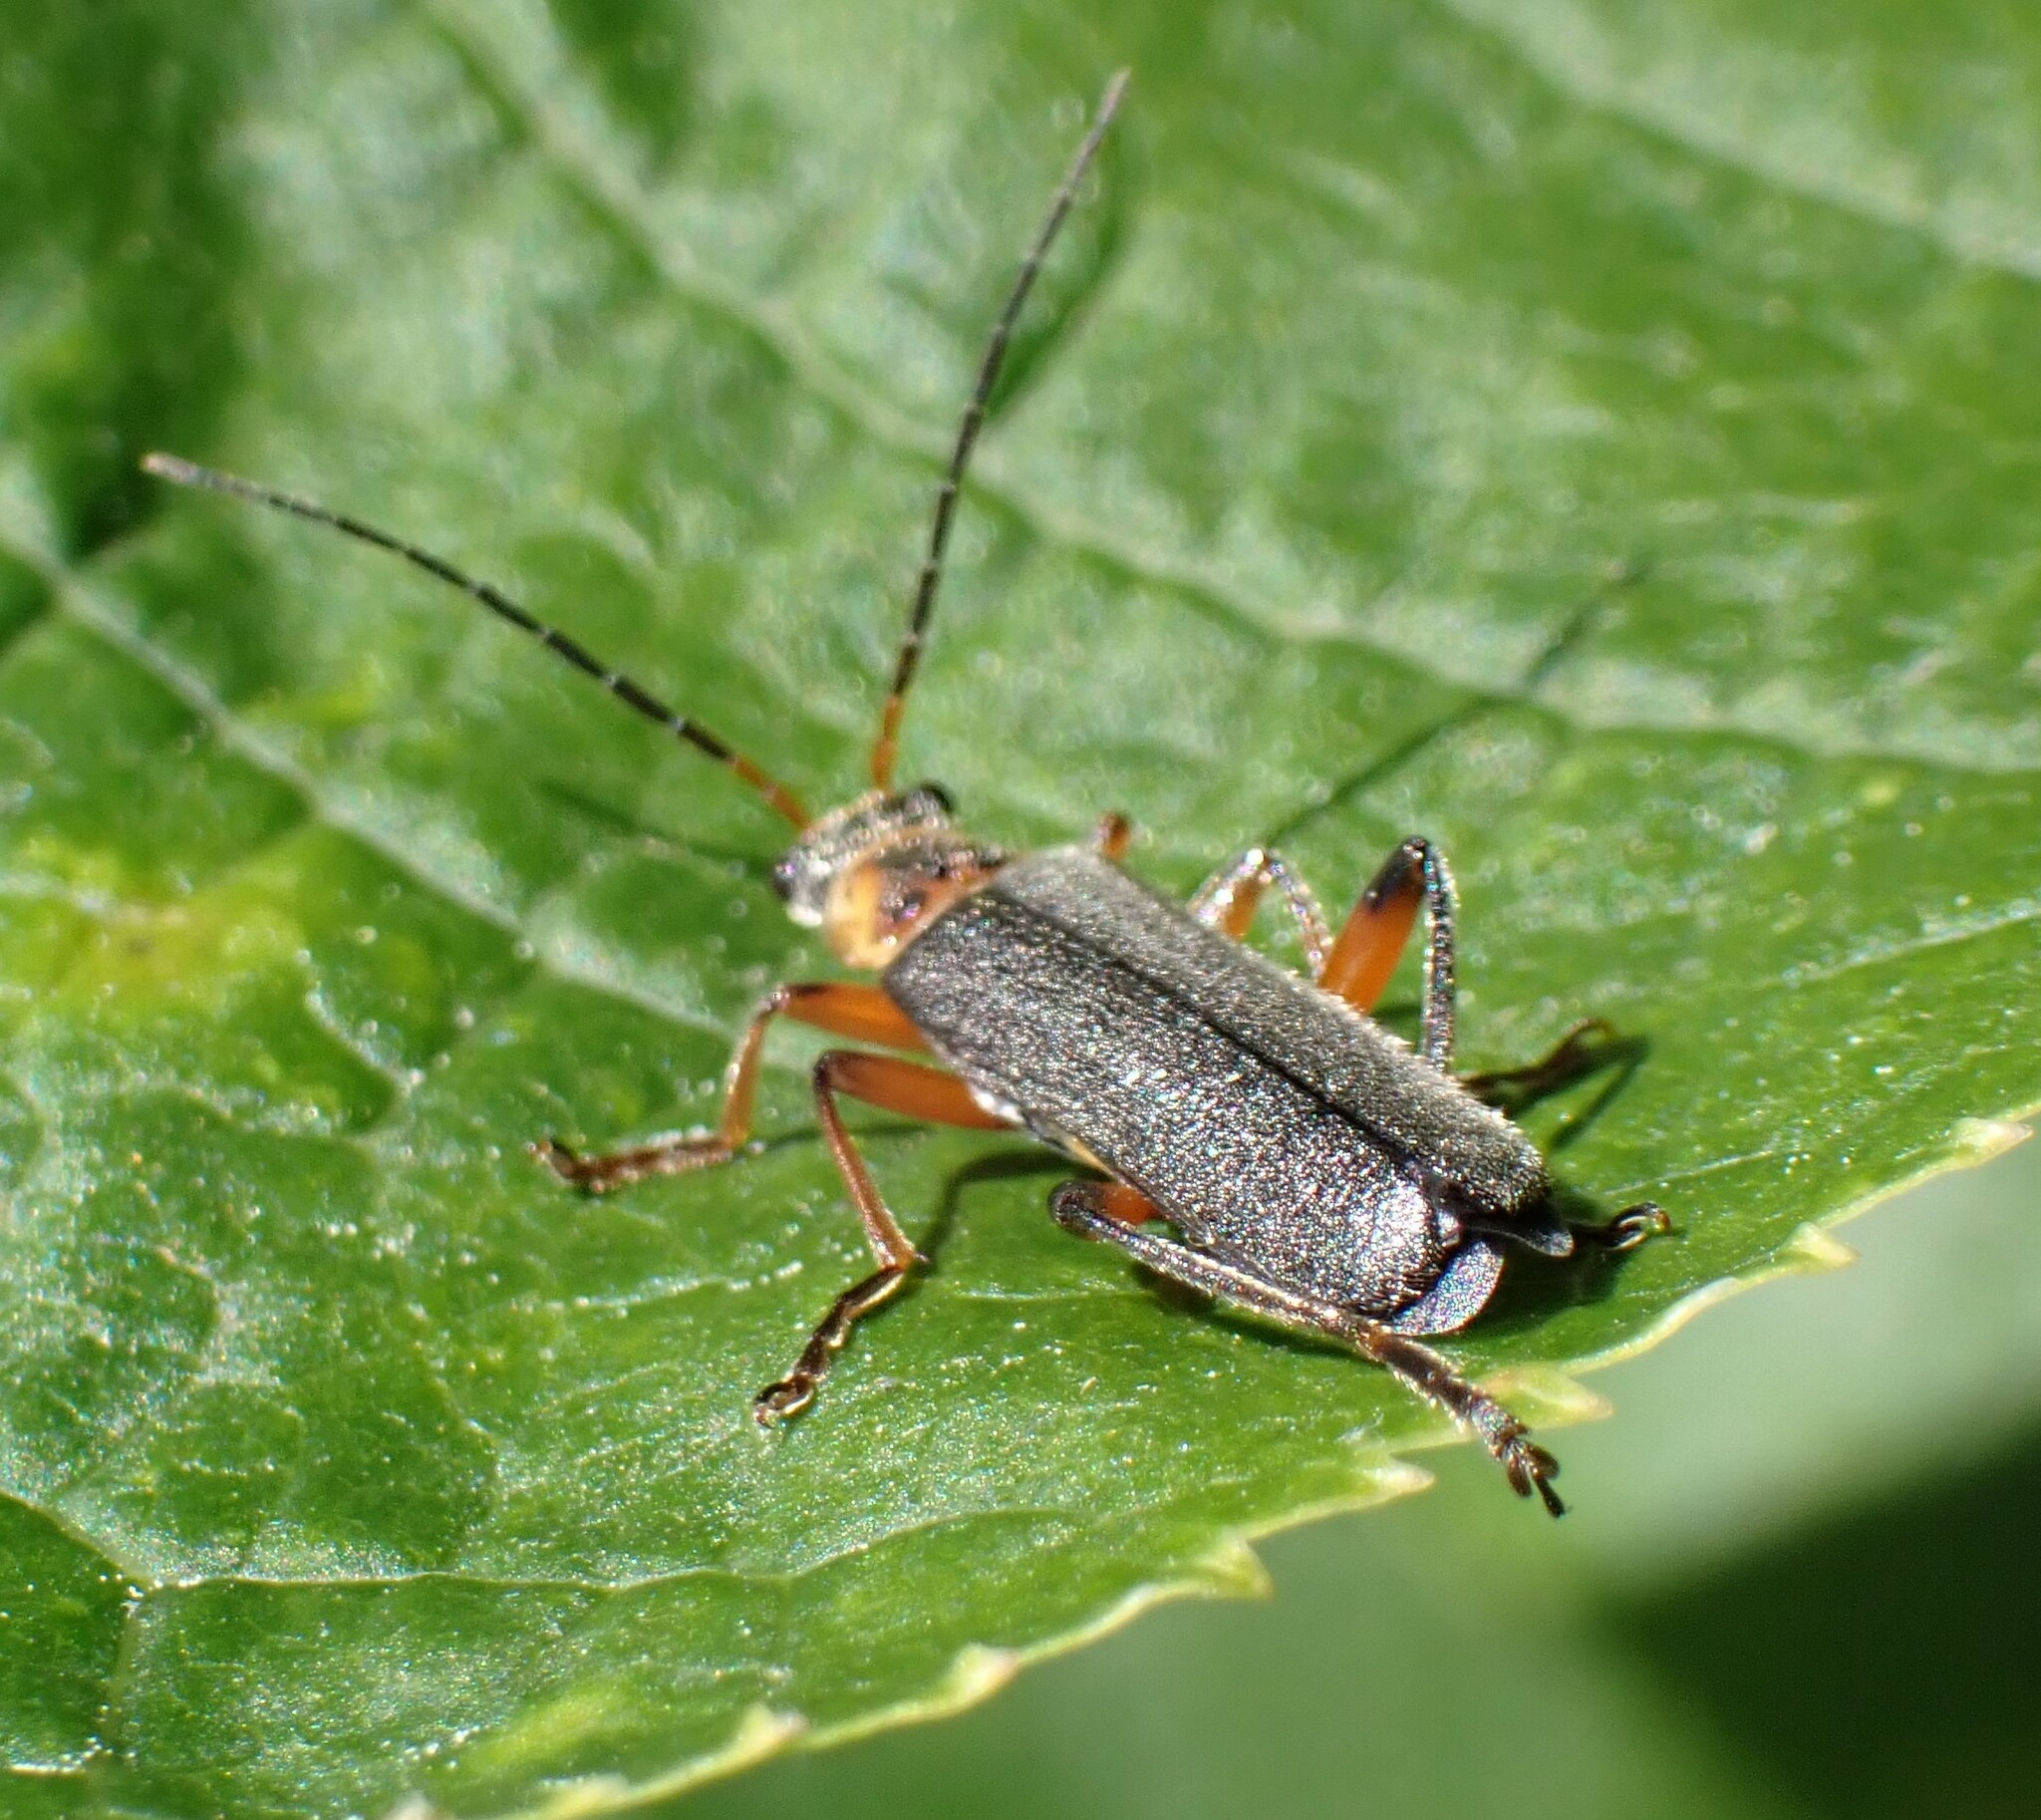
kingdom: Animalia
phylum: Arthropoda
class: Insecta
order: Coleoptera
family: Cantharidae
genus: Cantharis
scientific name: Cantharis nigricans
